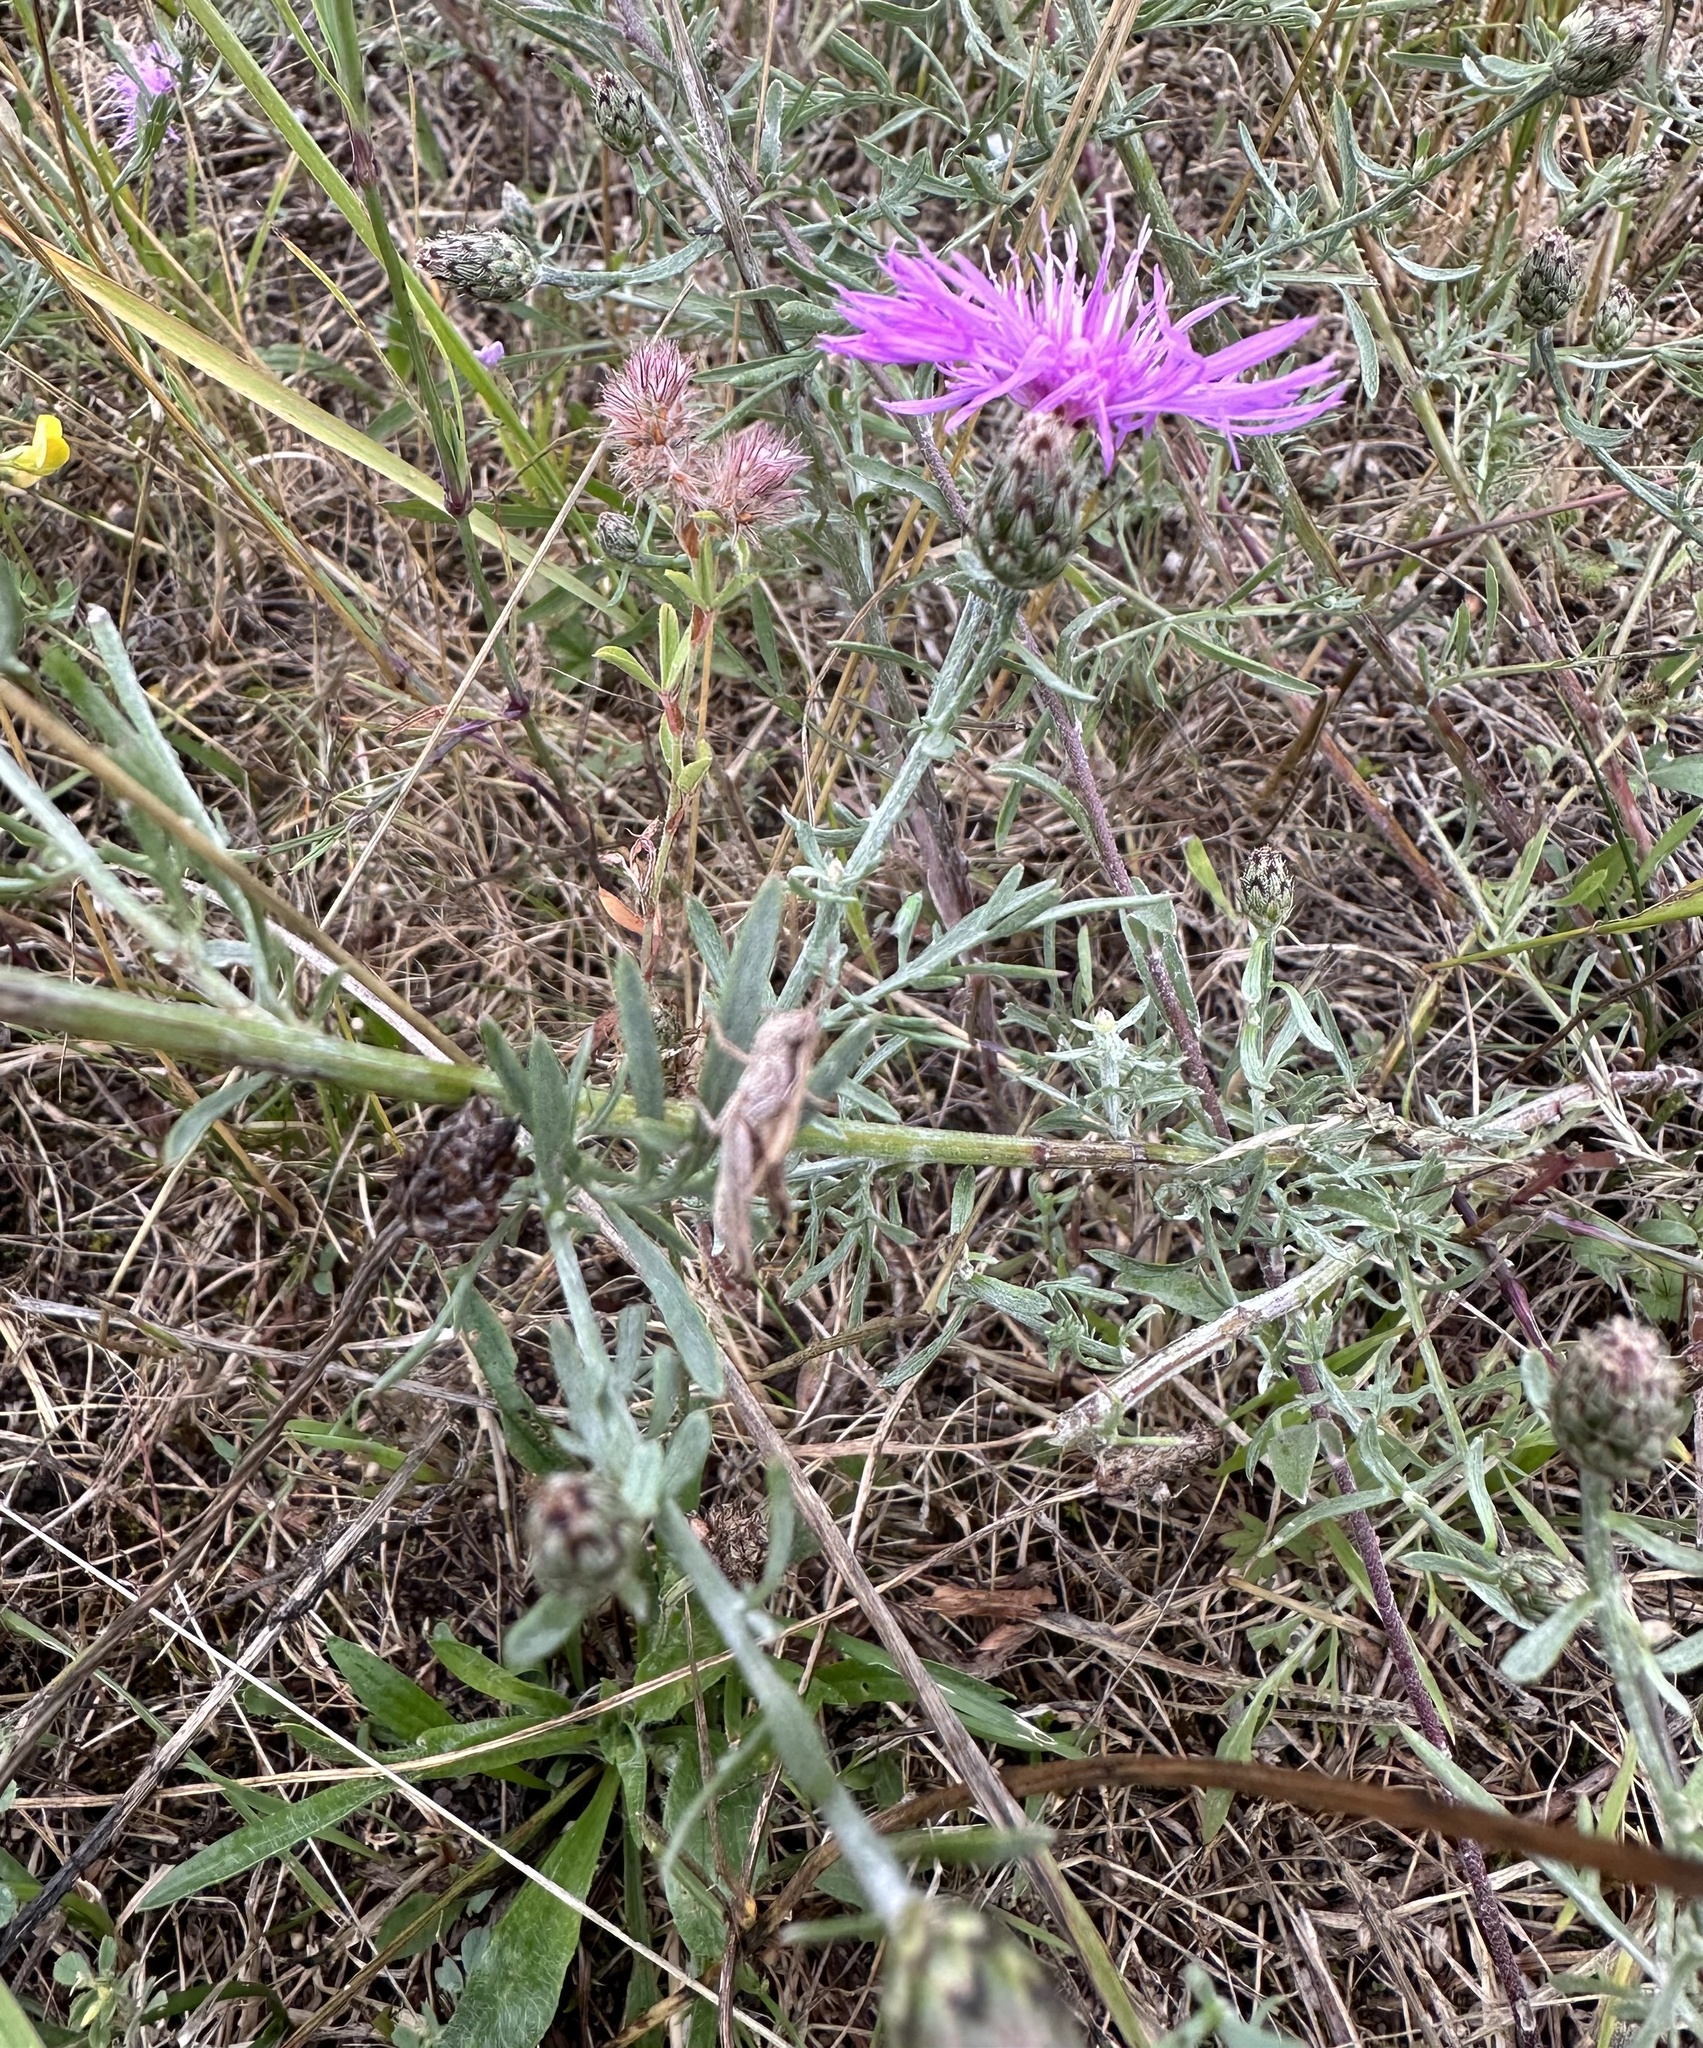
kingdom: Plantae
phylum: Tracheophyta
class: Magnoliopsida
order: Asterales
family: Asteraceae
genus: Centaurea
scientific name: Centaurea stoebe
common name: Spotted knapweed
